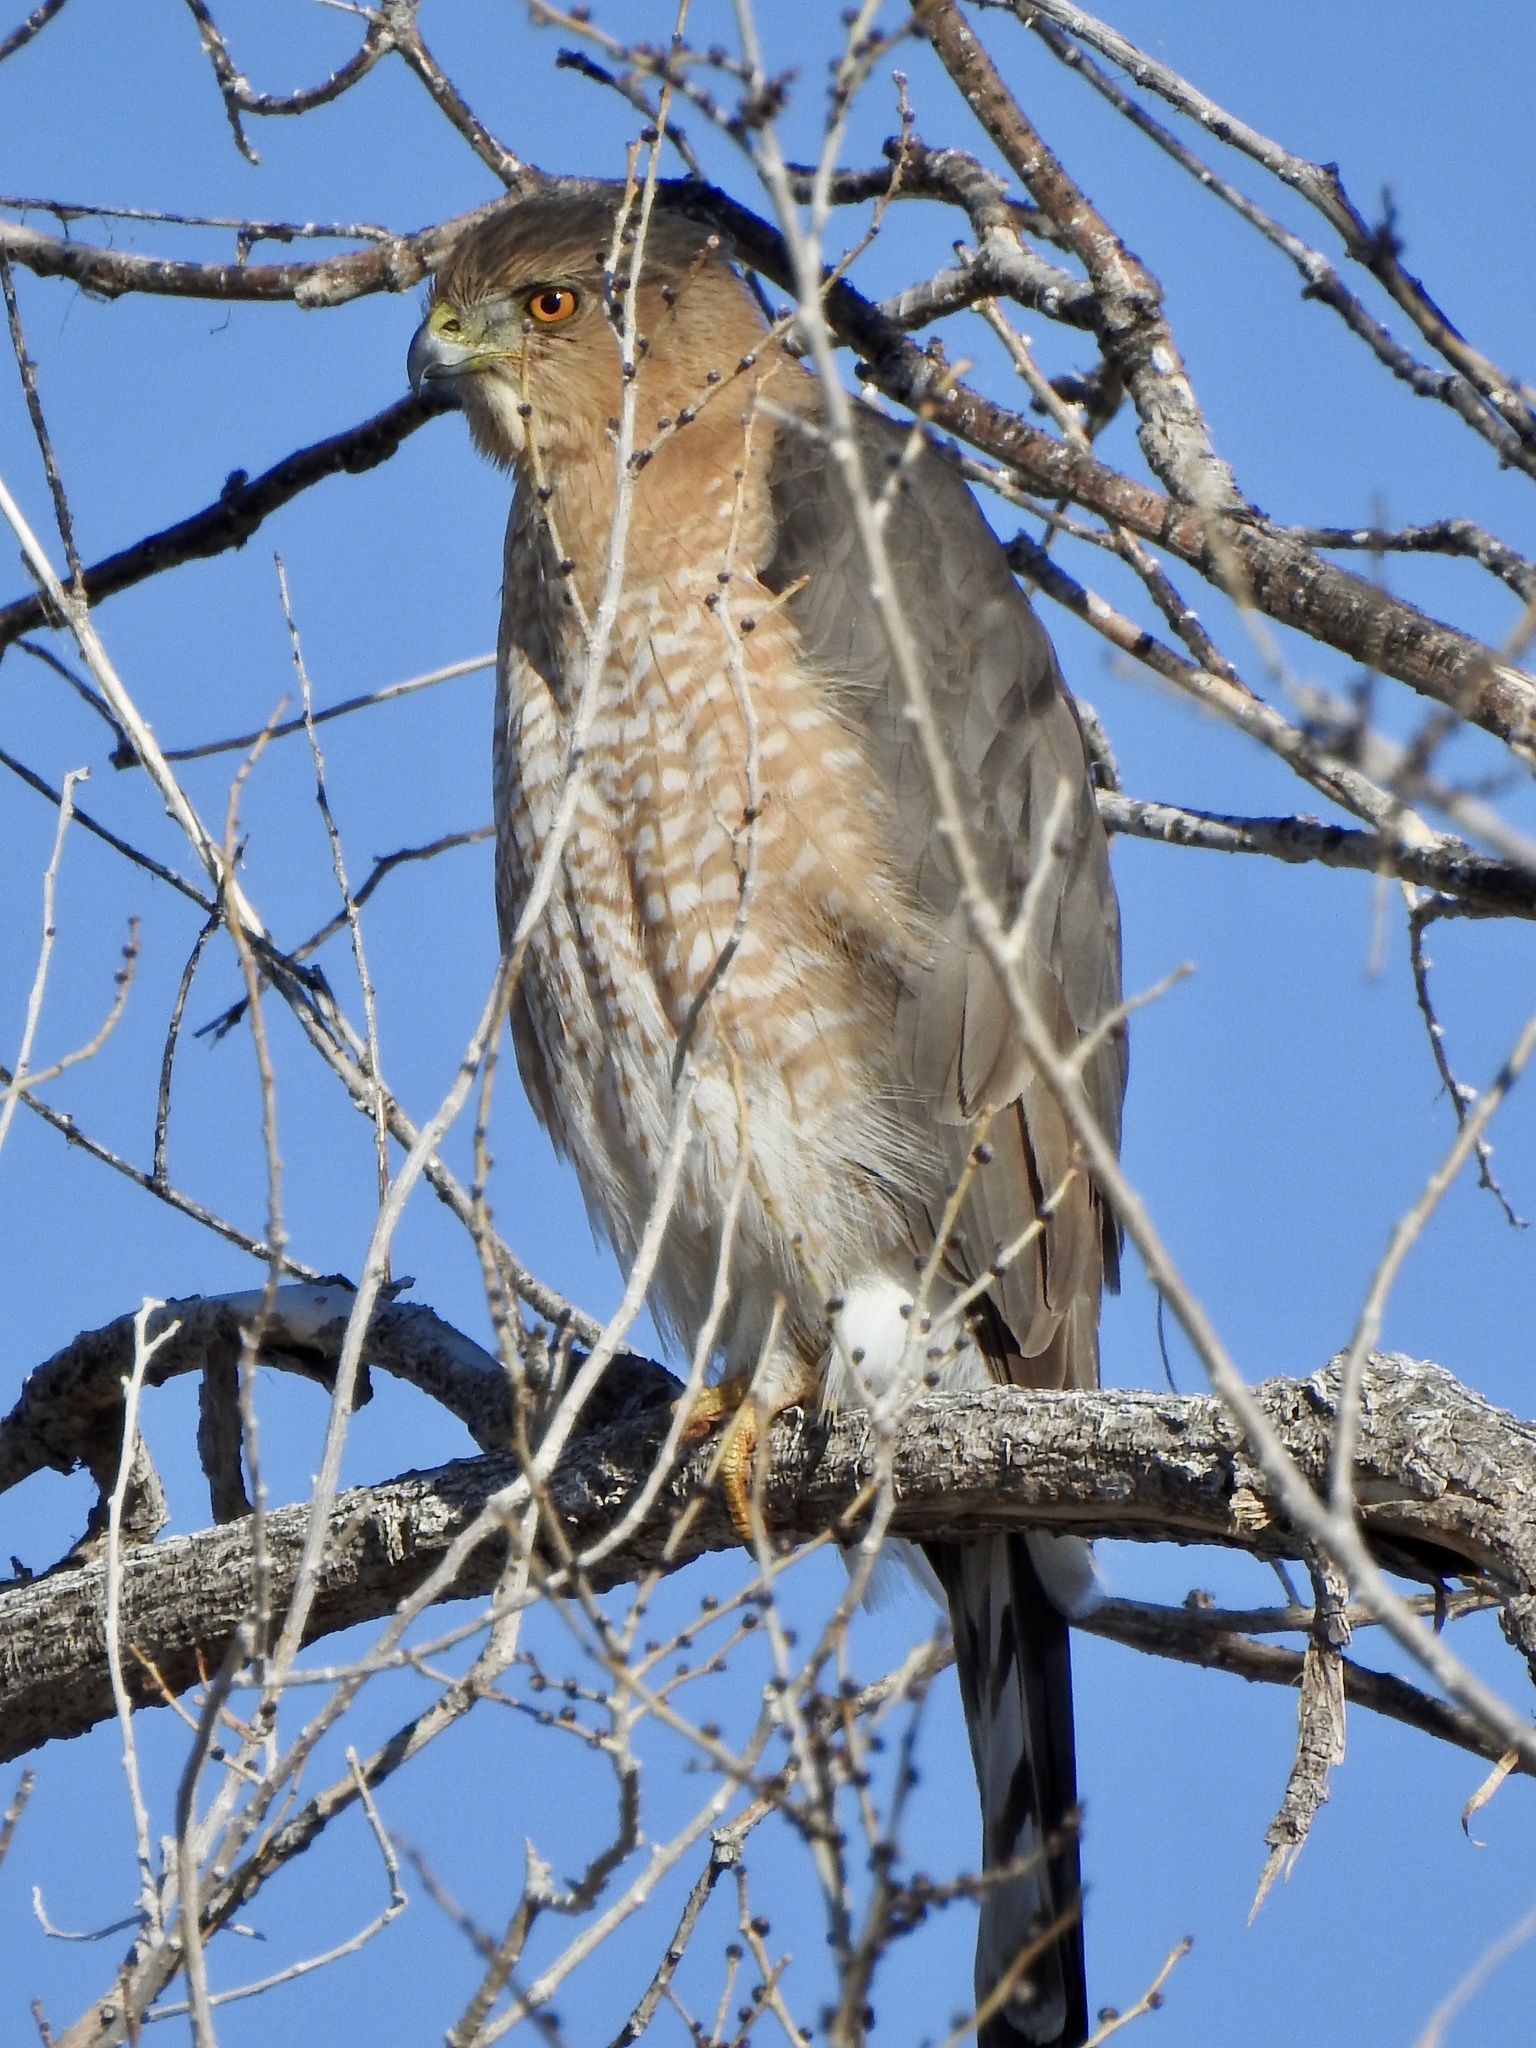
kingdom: Animalia
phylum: Chordata
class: Aves
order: Accipitriformes
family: Accipitridae
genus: Accipiter
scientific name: Accipiter cooperii
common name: Cooper's hawk
